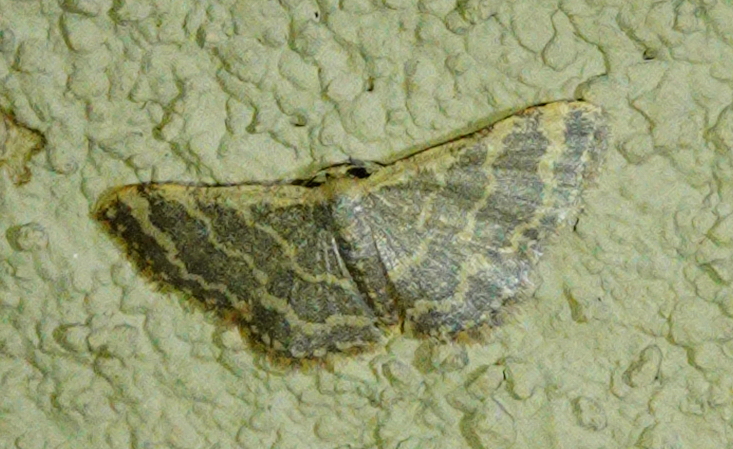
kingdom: Animalia
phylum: Arthropoda
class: Insecta
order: Lepidoptera
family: Geometridae
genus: Idaea
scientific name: Idaea costiguttata
